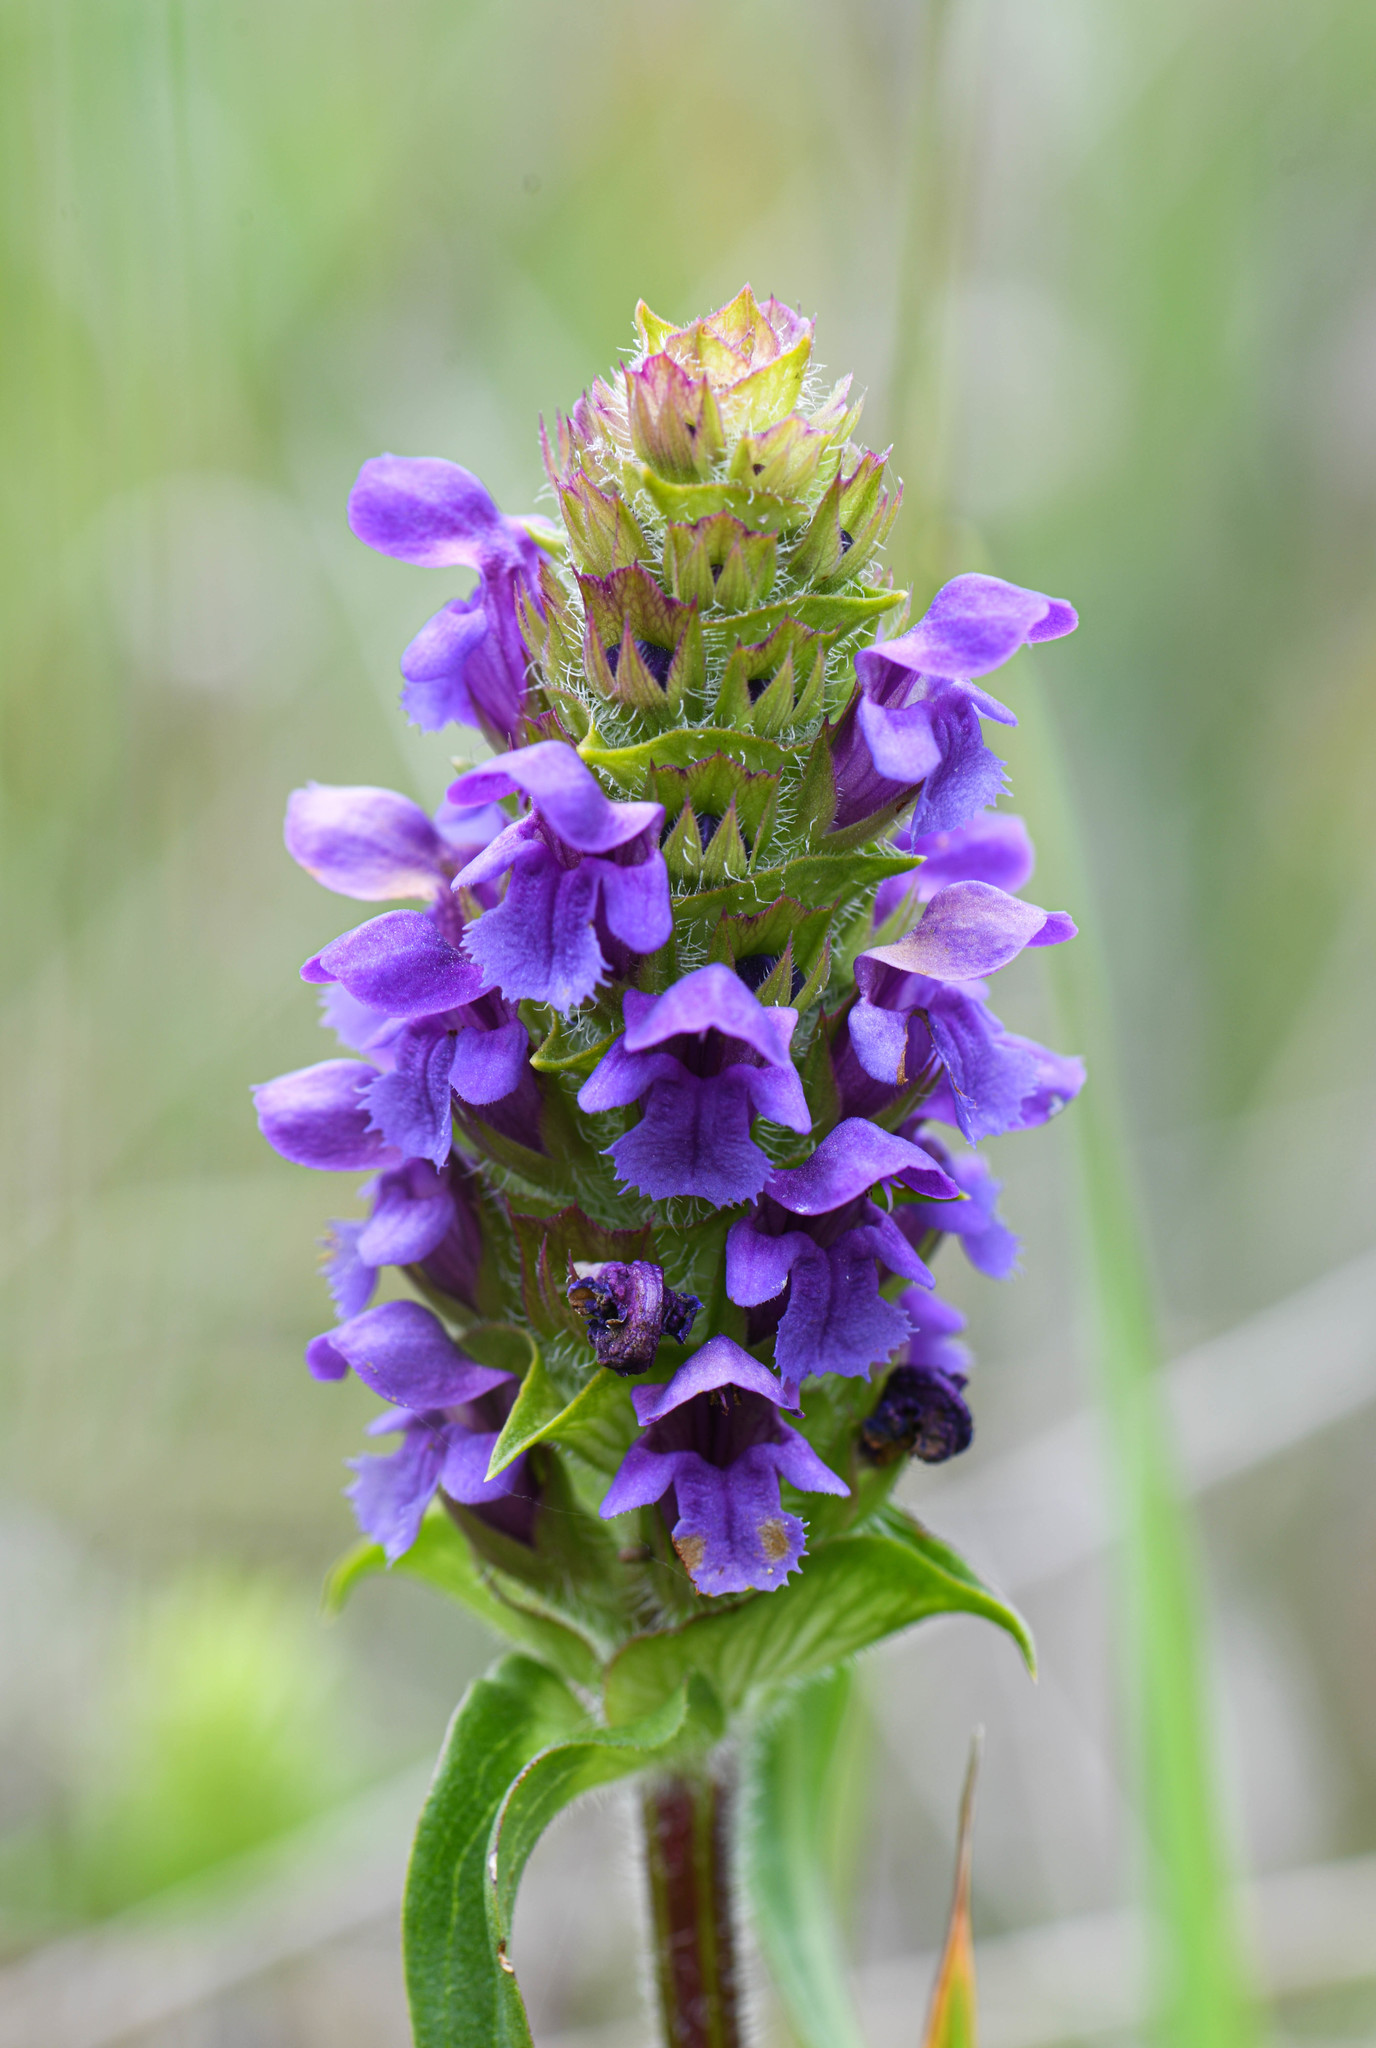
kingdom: Plantae
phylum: Tracheophyta
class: Magnoliopsida
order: Lamiales
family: Lamiaceae
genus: Prunella
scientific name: Prunella vulgaris
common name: Heal-all
